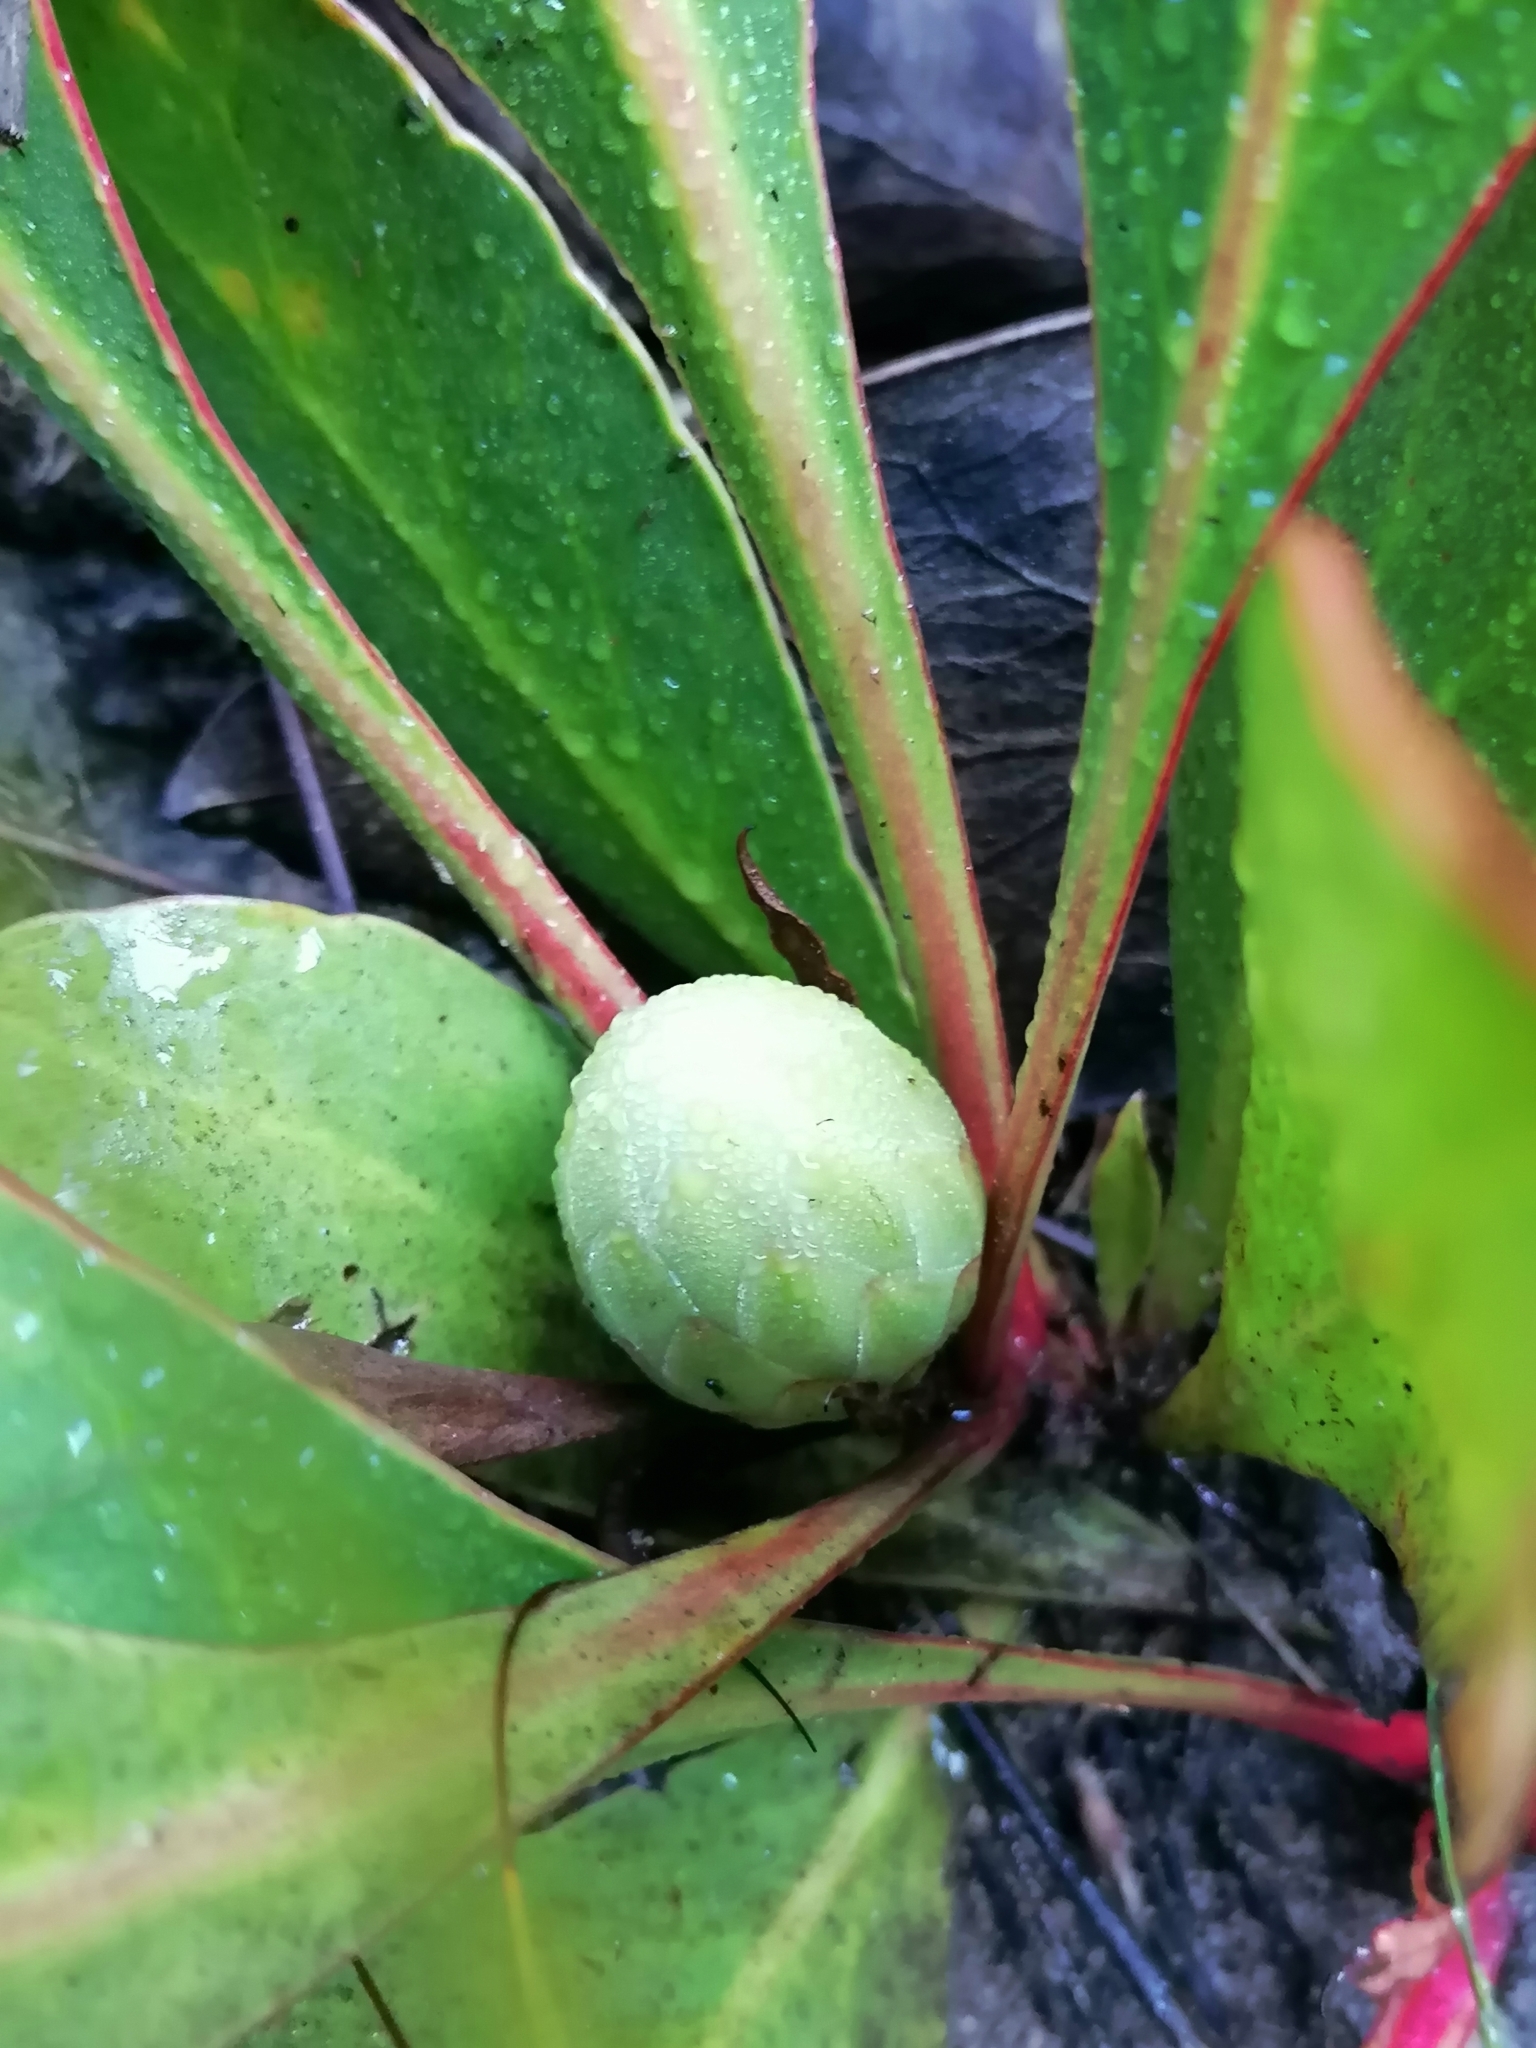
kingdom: Plantae
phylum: Tracheophyta
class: Magnoliopsida
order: Proteales
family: Proteaceae
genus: Protea
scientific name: Protea acaulos
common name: Common ground sugarbush
